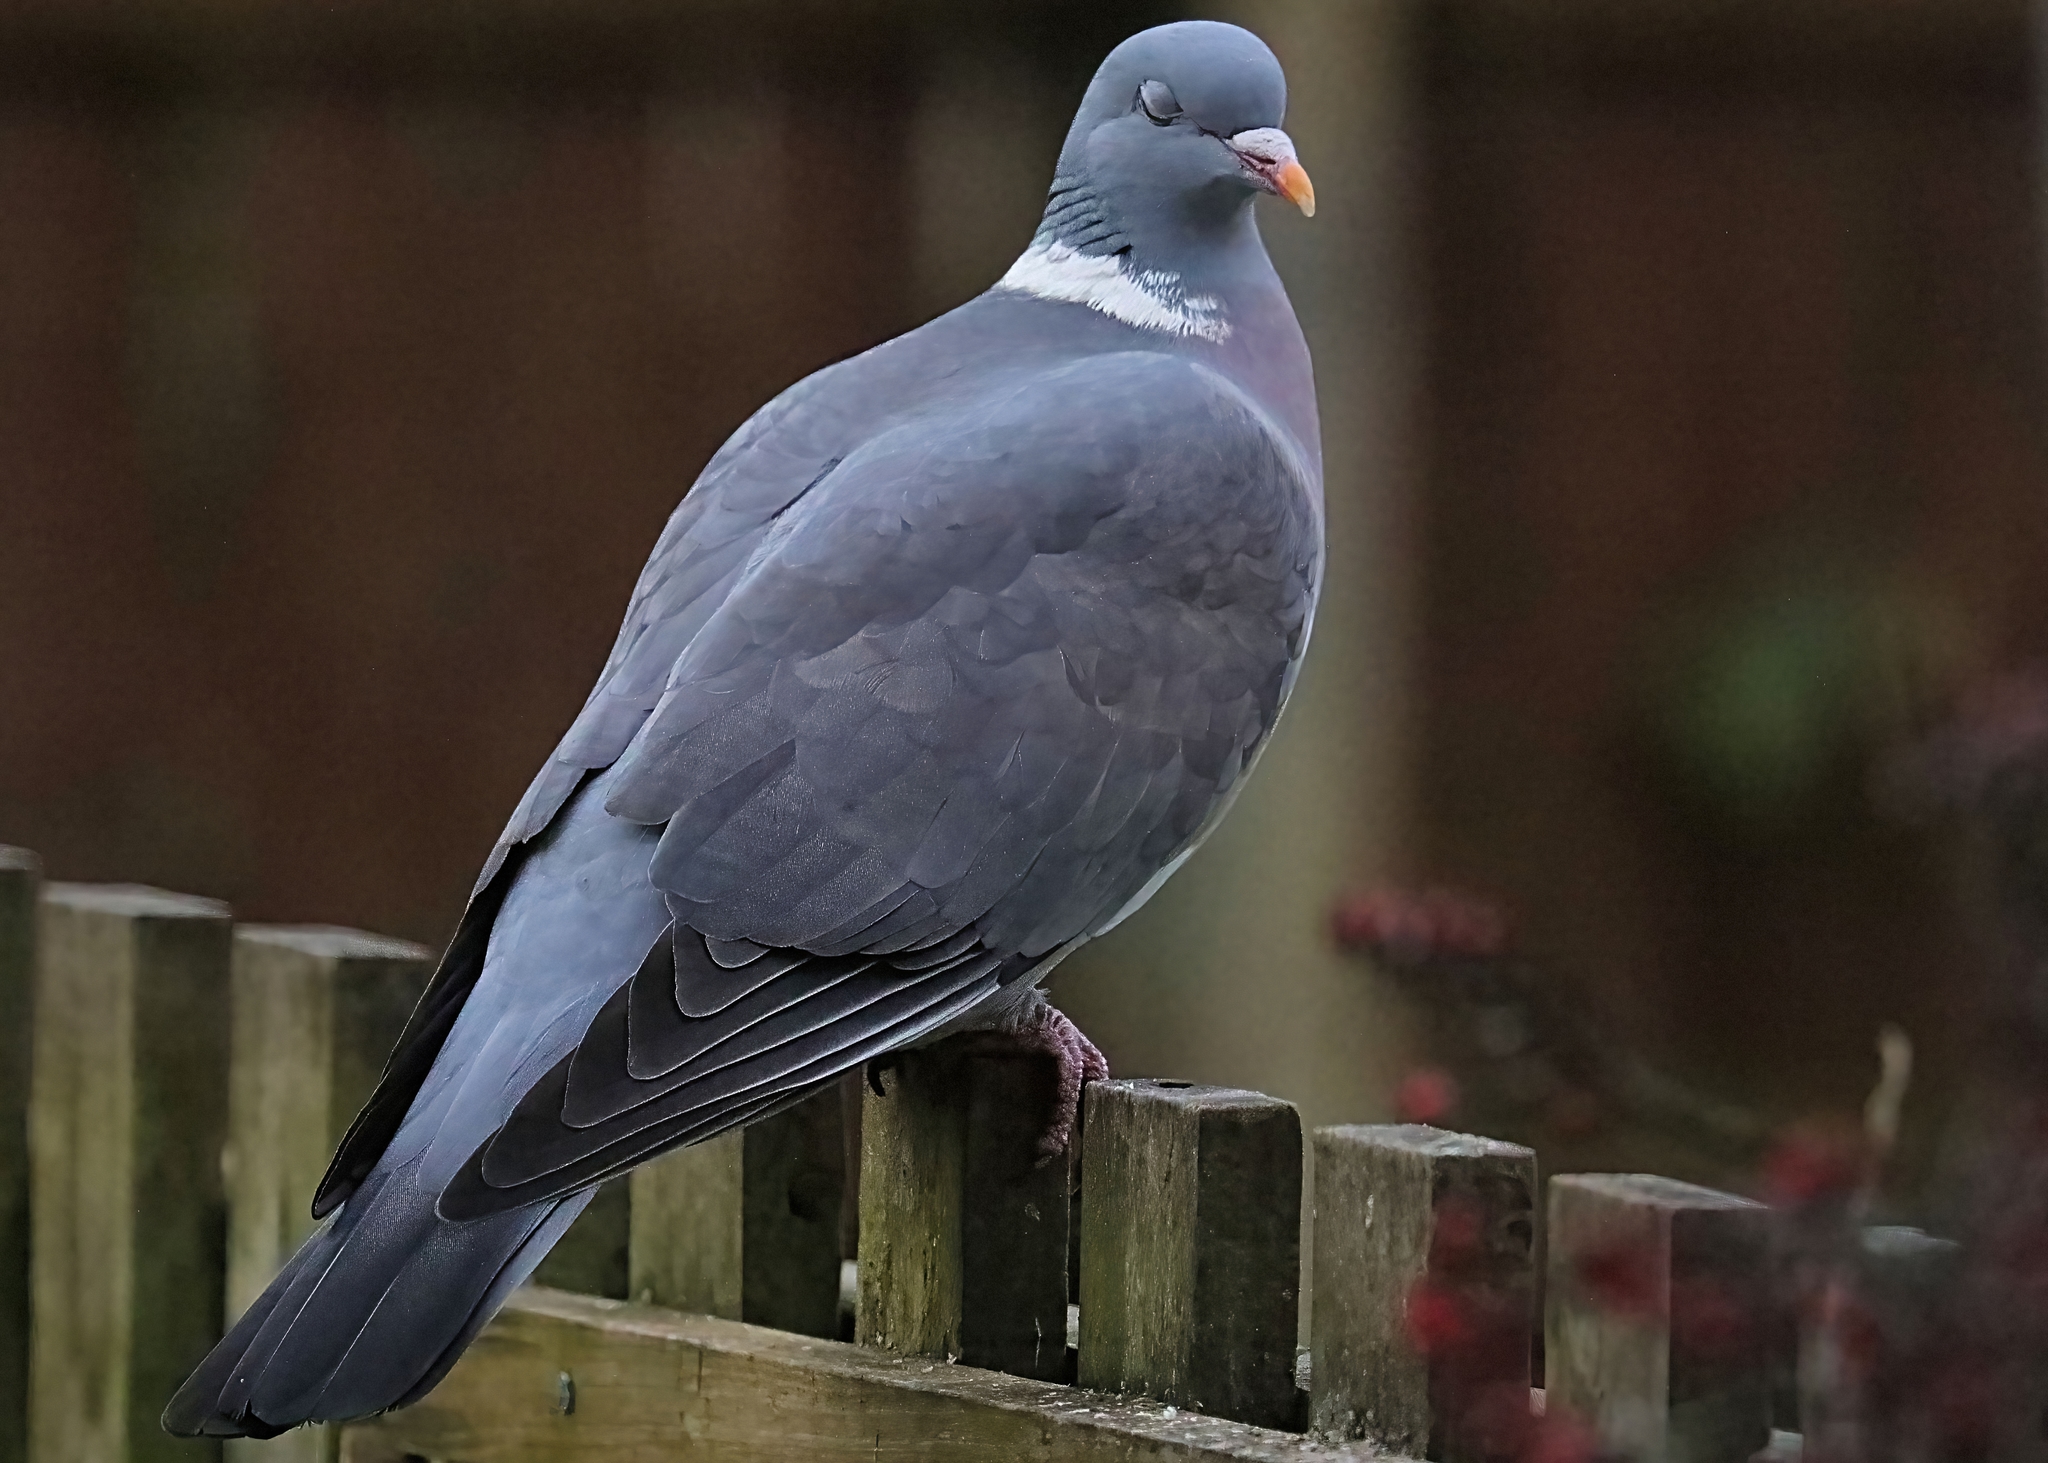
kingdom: Animalia
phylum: Chordata
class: Aves
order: Columbiformes
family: Columbidae
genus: Columba
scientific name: Columba palumbus
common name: Common wood pigeon
